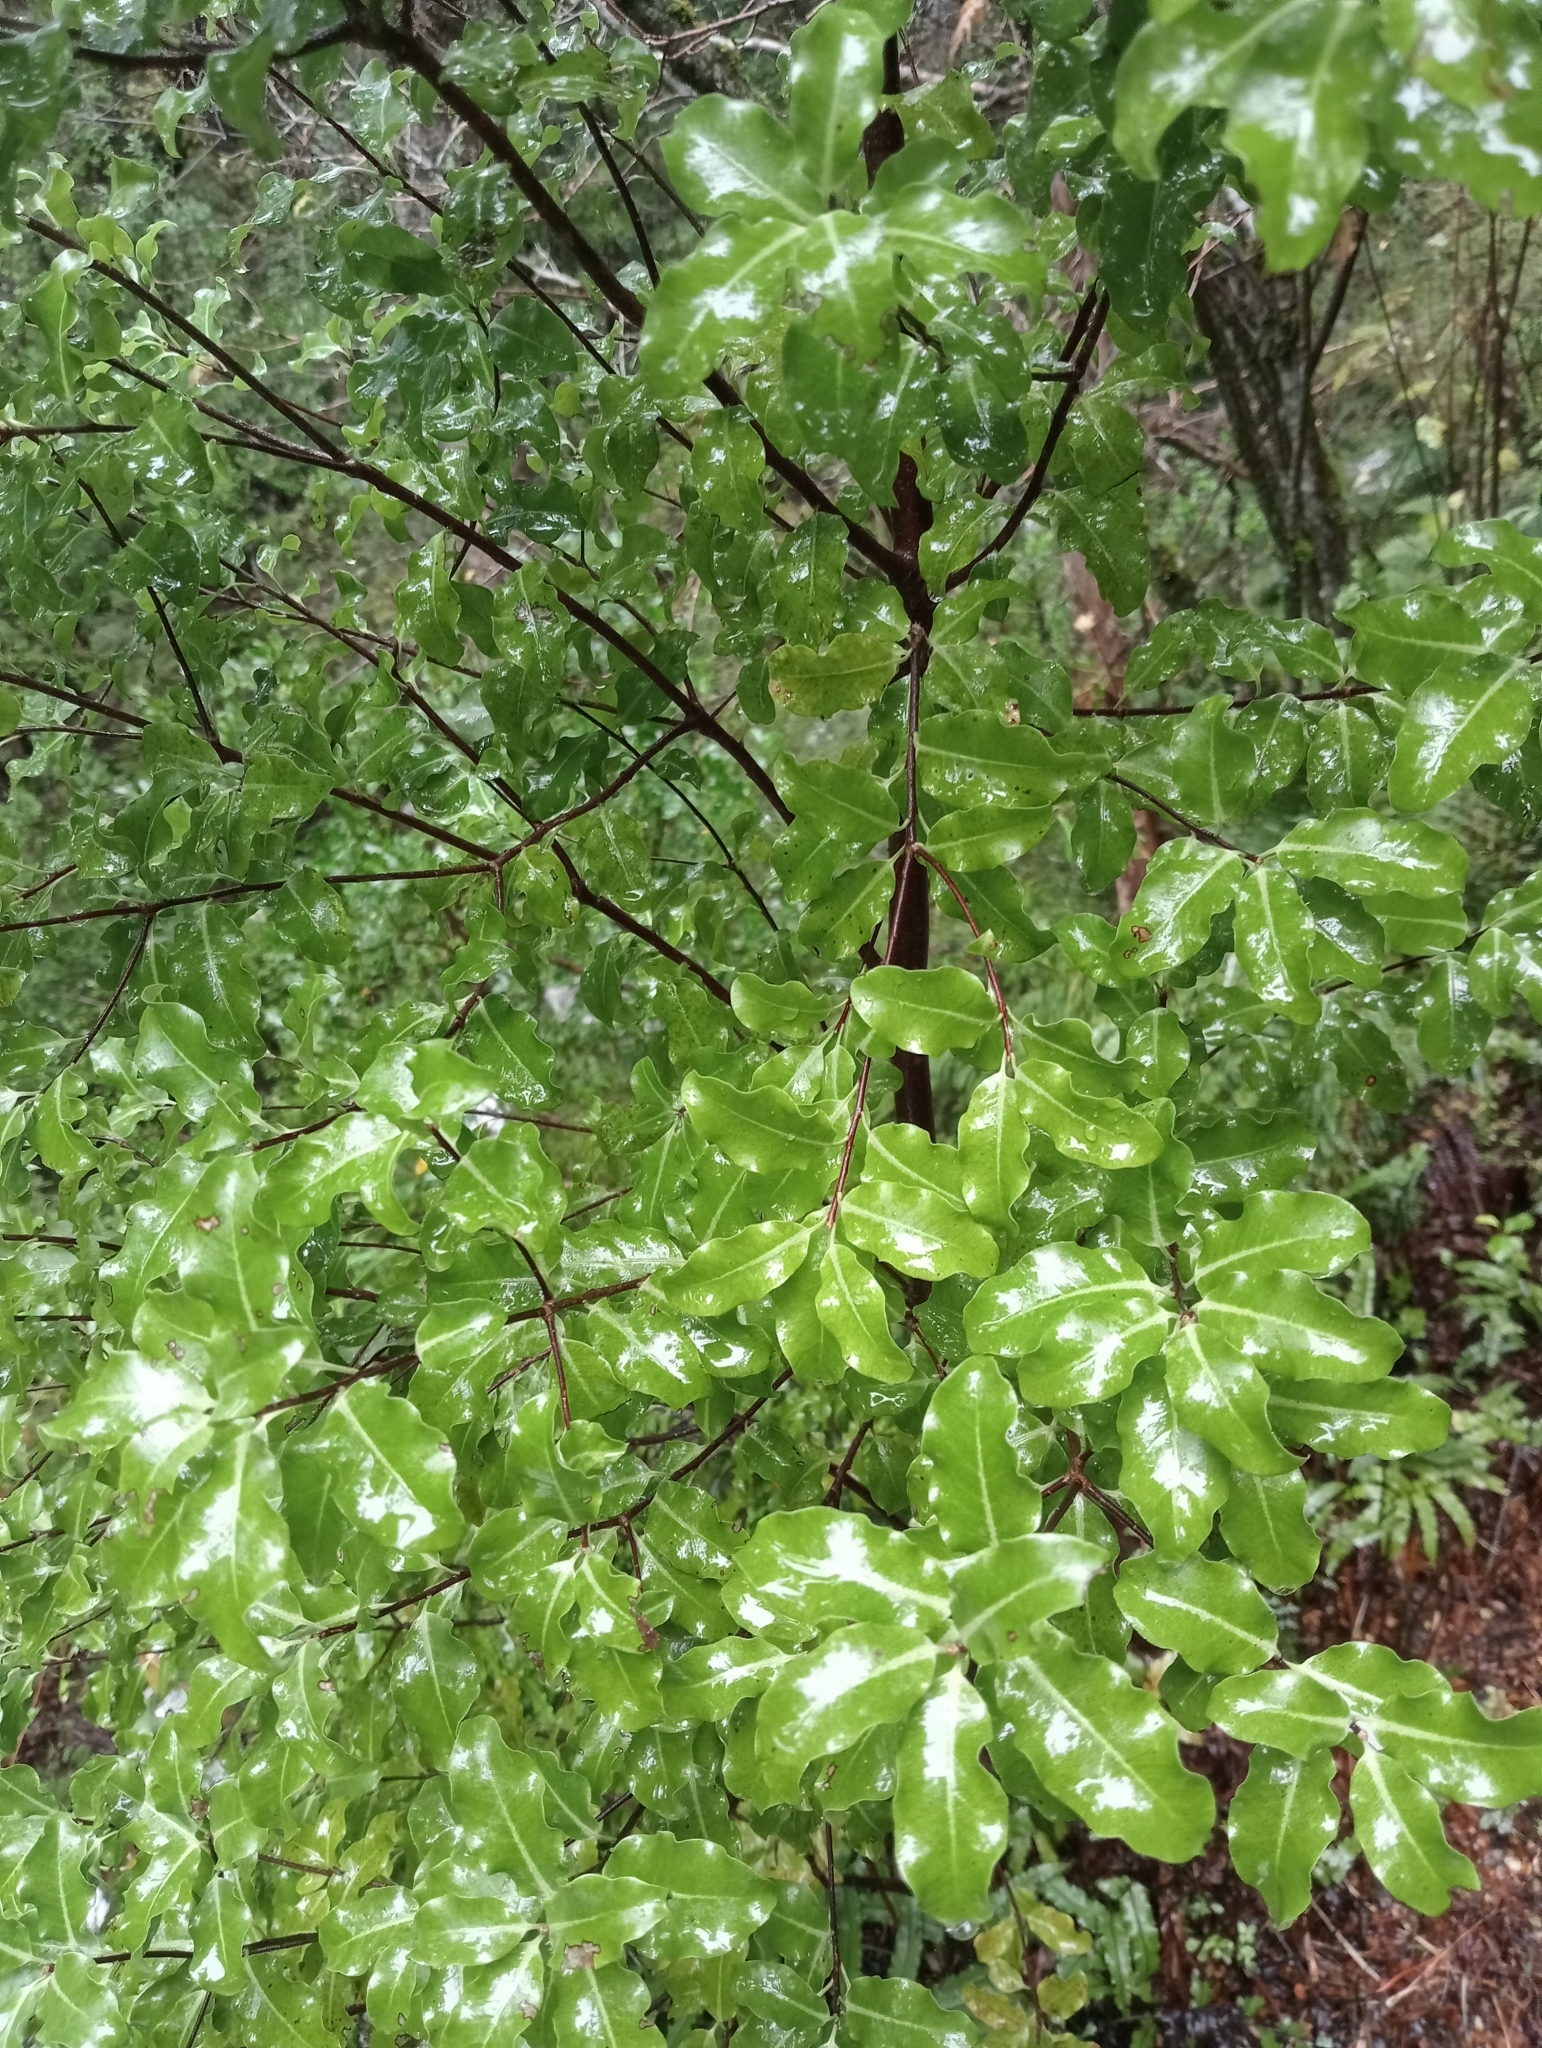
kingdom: Plantae
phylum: Tracheophyta
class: Magnoliopsida
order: Apiales
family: Pittosporaceae
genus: Pittosporum
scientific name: Pittosporum tenuifolium
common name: Kohuhu
